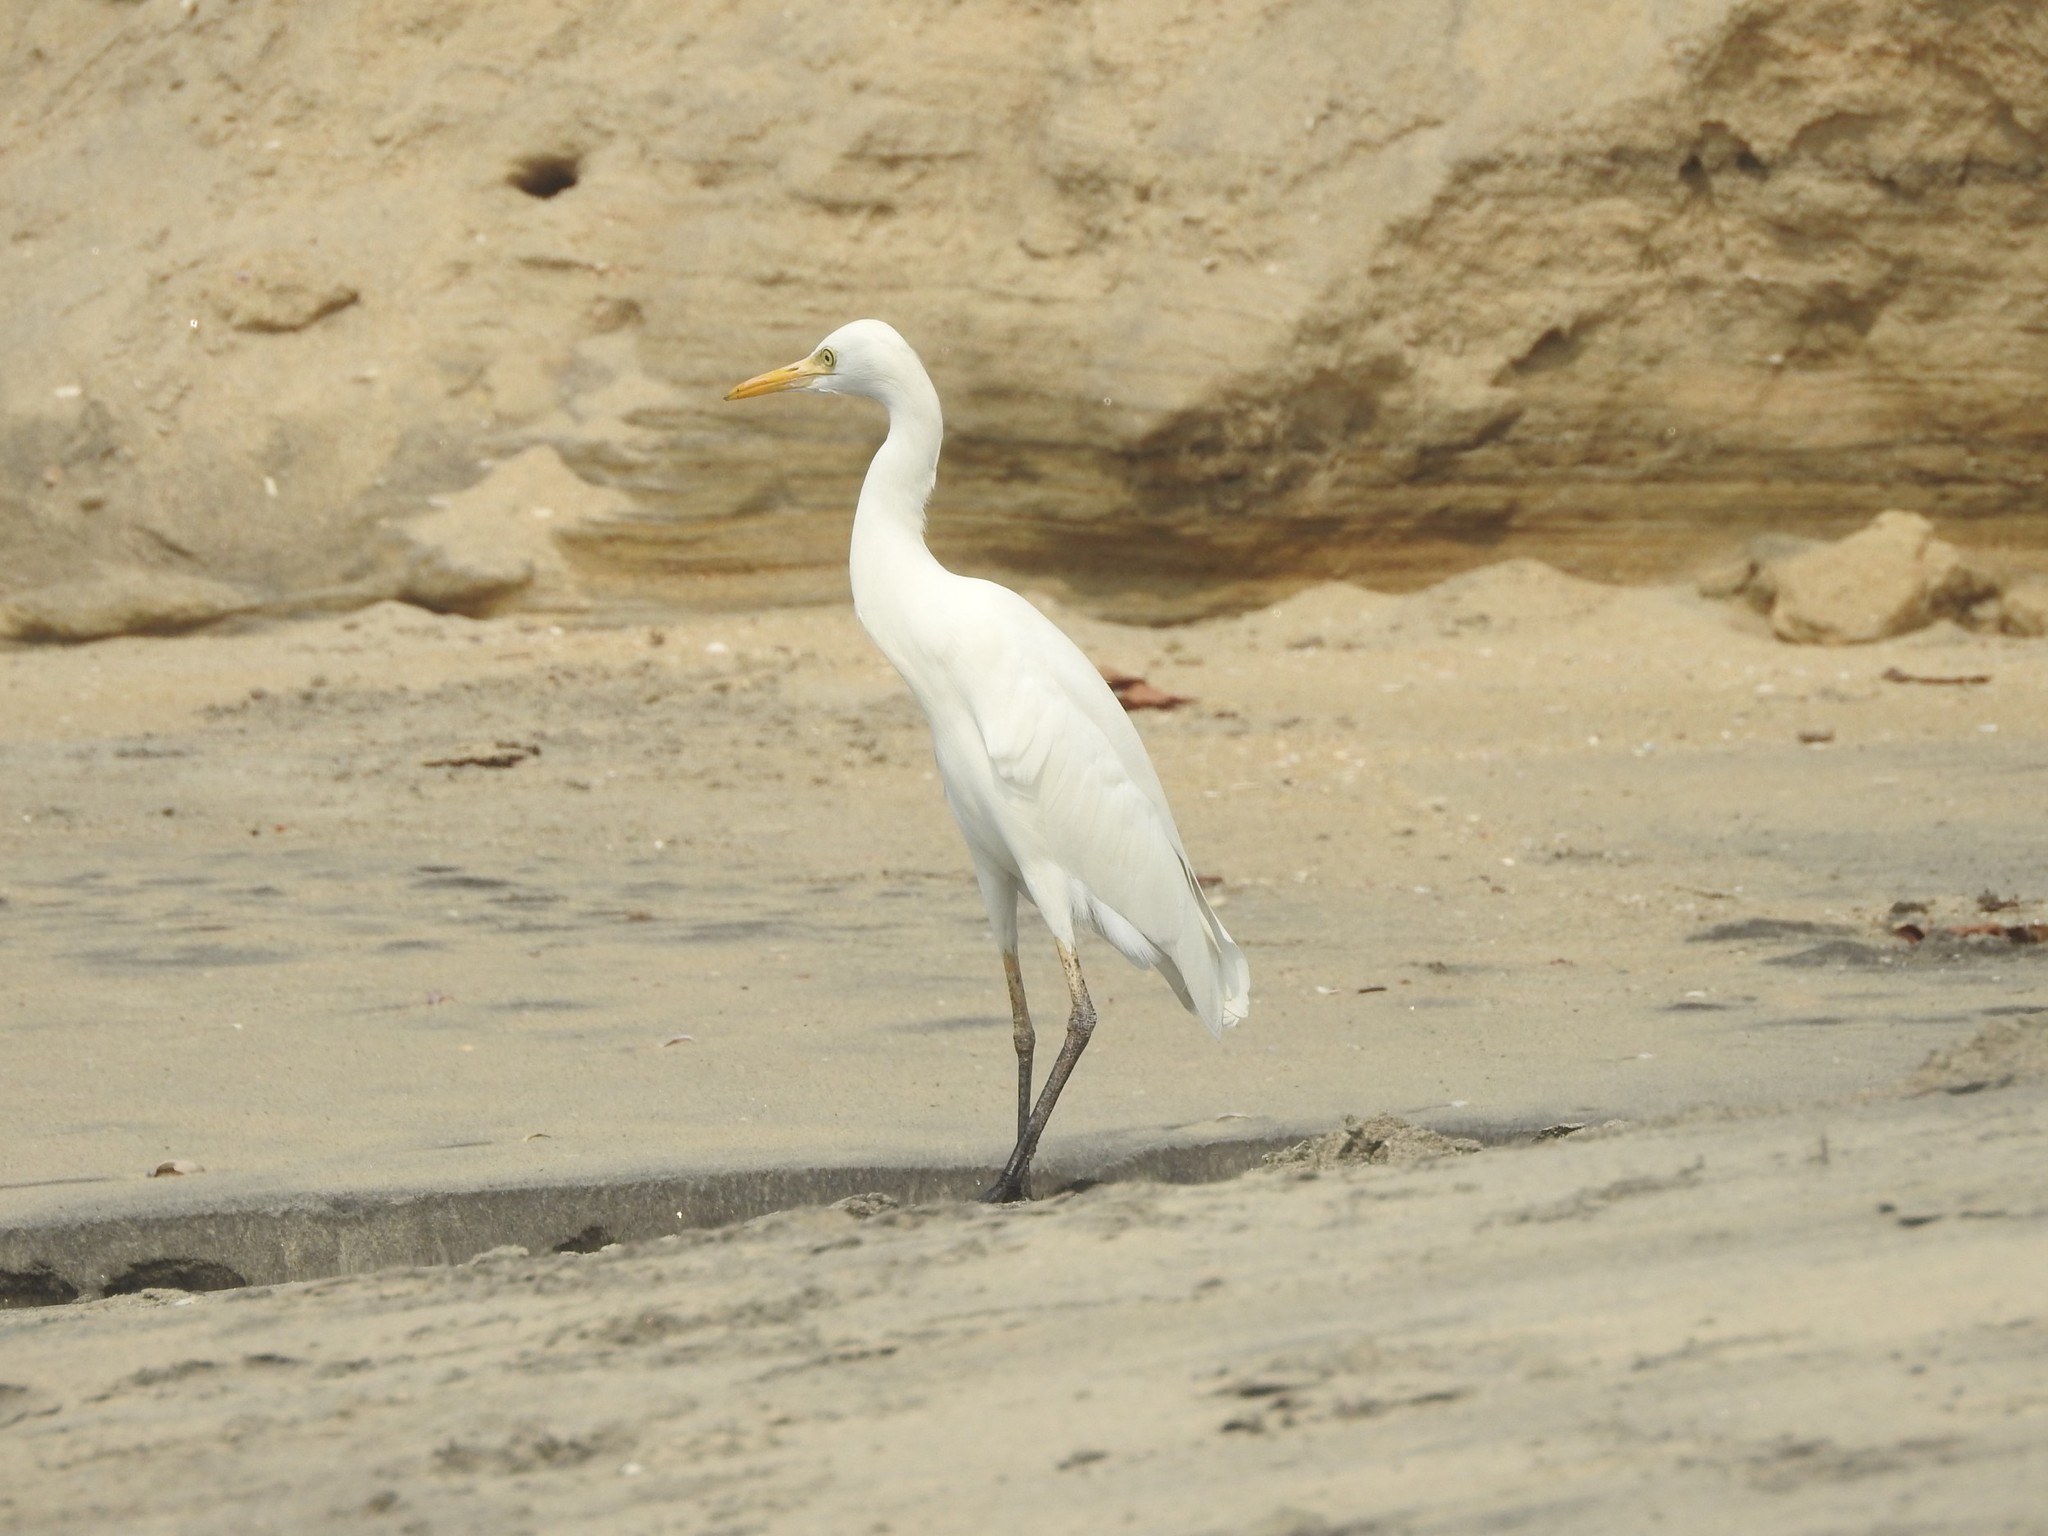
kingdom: Animalia
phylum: Chordata
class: Aves
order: Pelecaniformes
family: Ardeidae
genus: Egretta
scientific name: Egretta intermedia
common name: Intermediate egret
